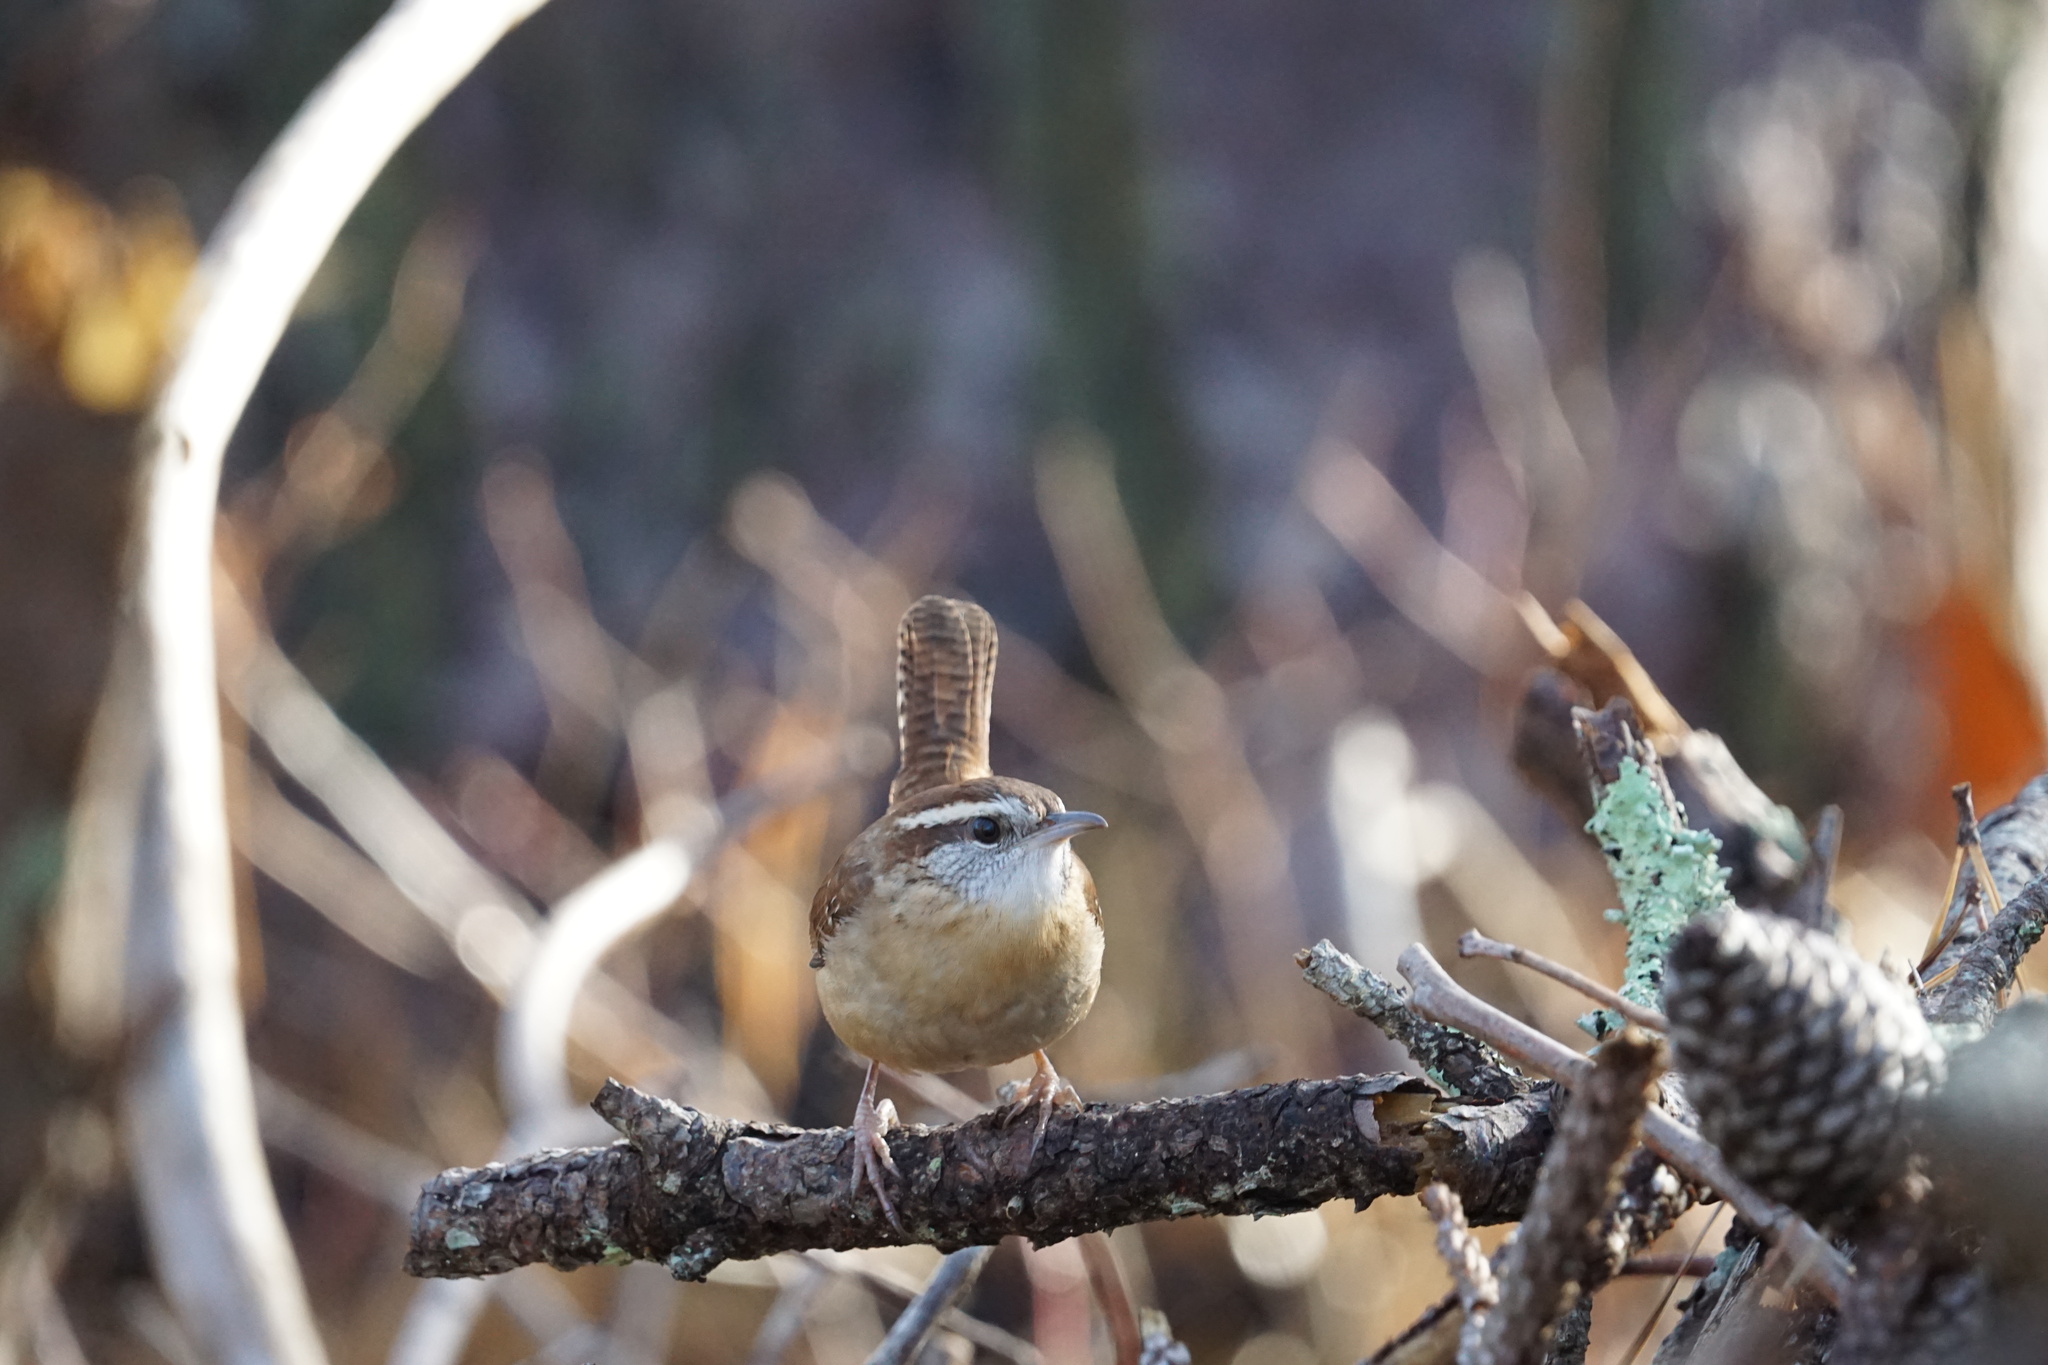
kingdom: Animalia
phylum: Chordata
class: Aves
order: Passeriformes
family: Troglodytidae
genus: Thryothorus
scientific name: Thryothorus ludovicianus
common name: Carolina wren
